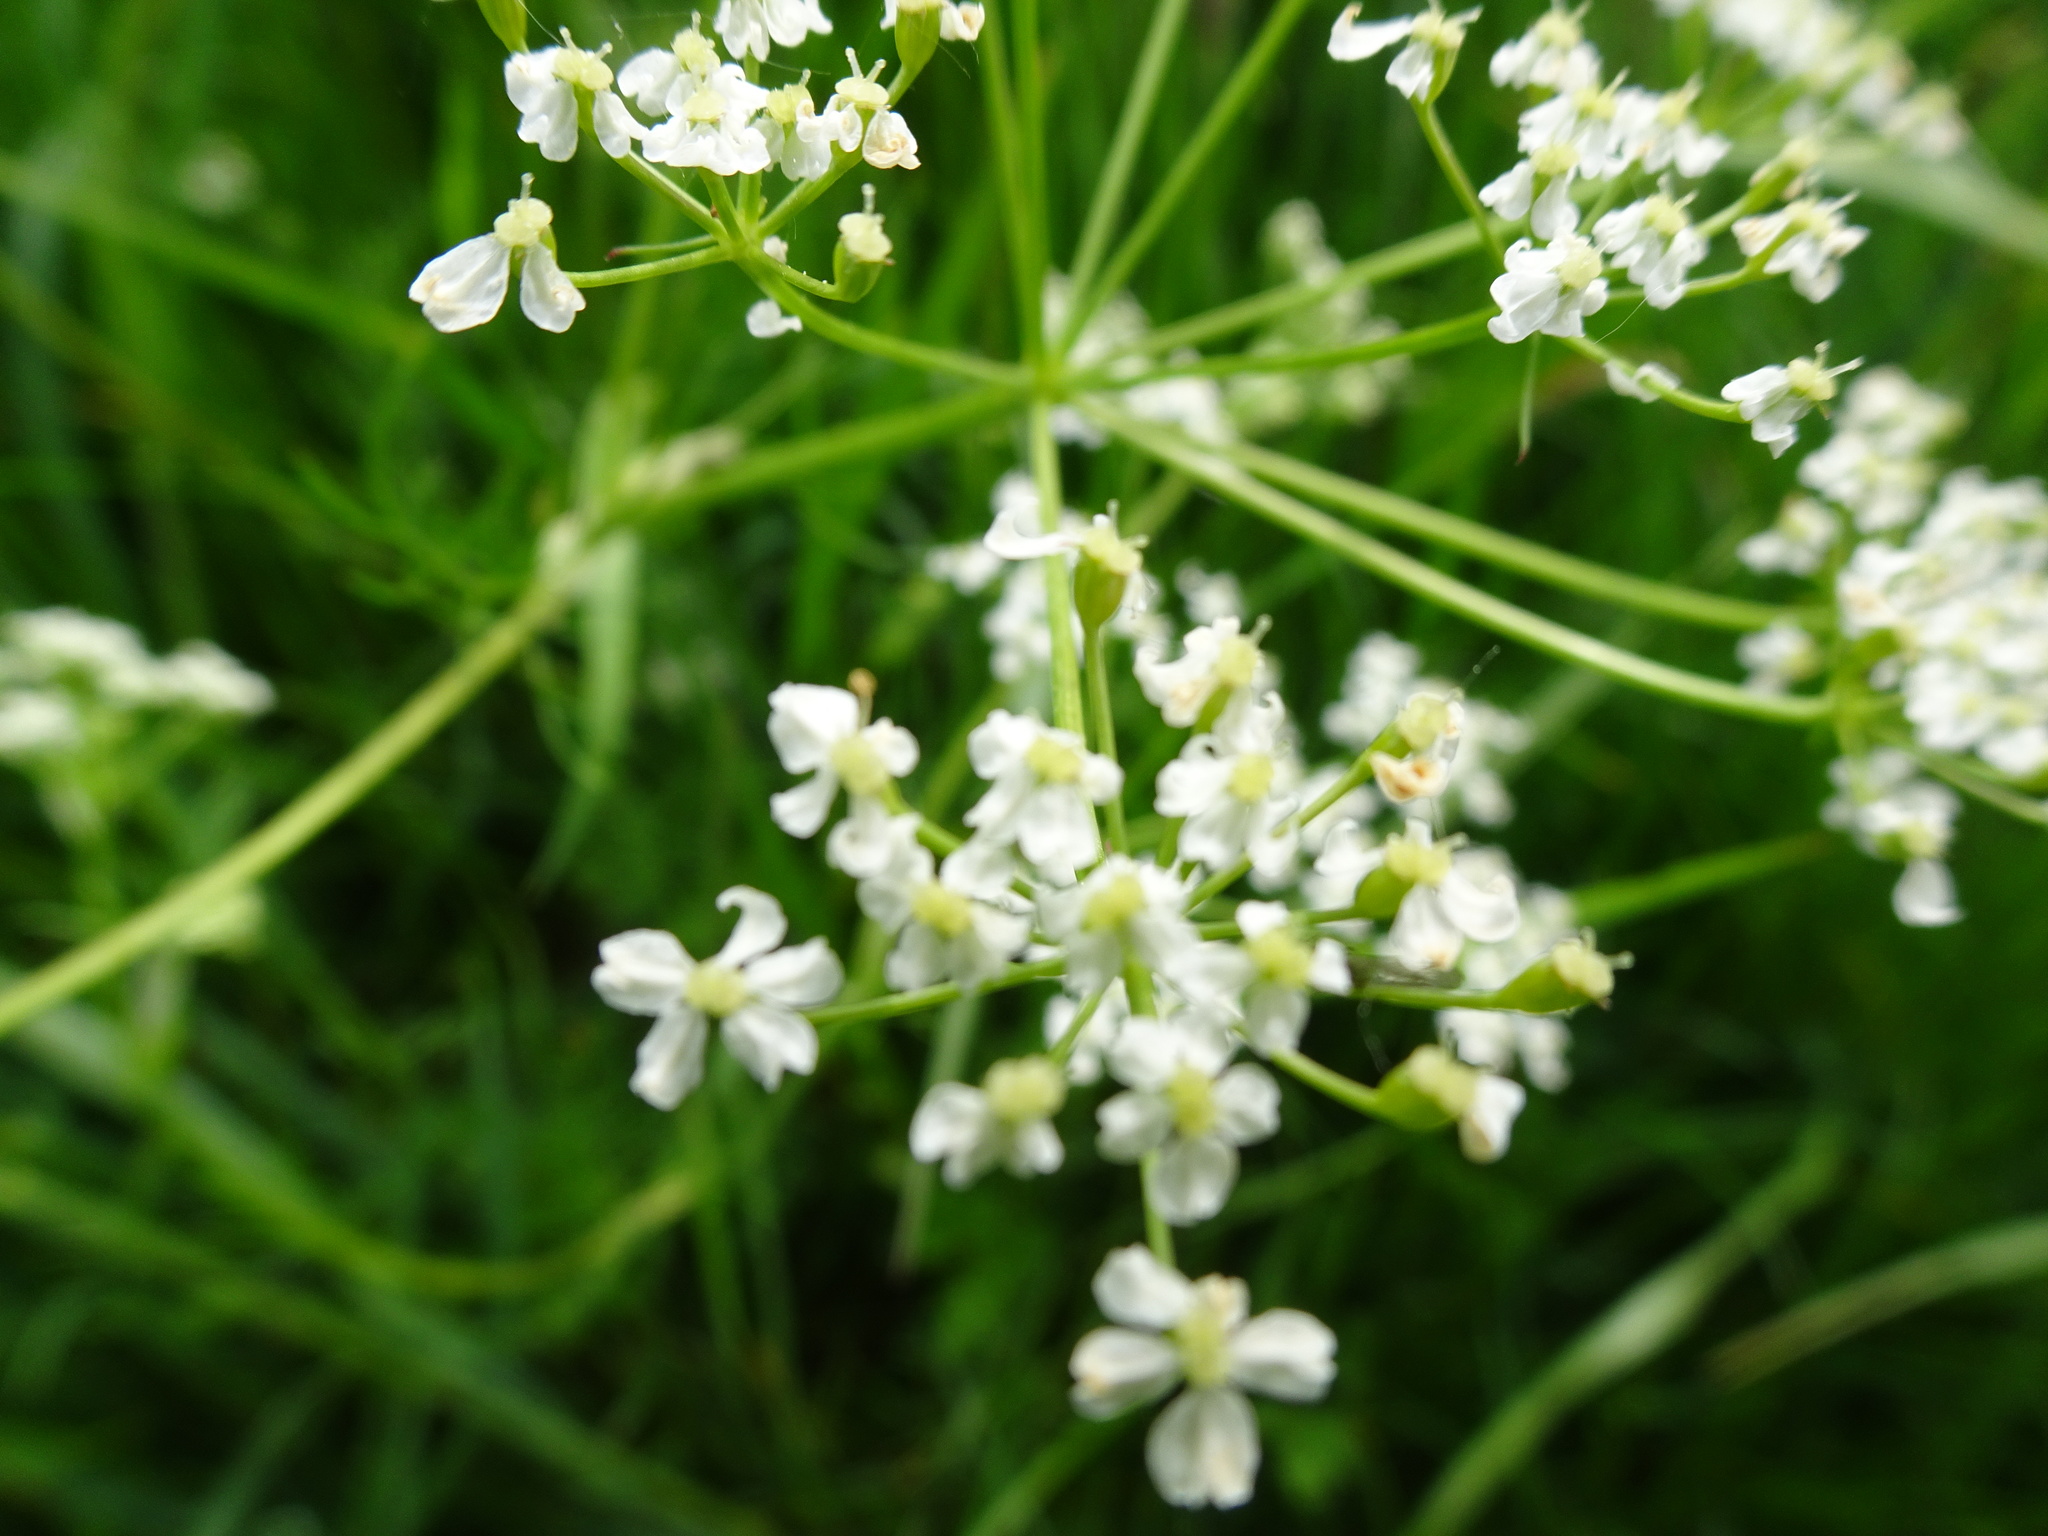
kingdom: Plantae
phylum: Tracheophyta
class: Magnoliopsida
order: Apiales
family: Apiaceae
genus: Conopodium
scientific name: Conopodium majus
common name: Pignut
